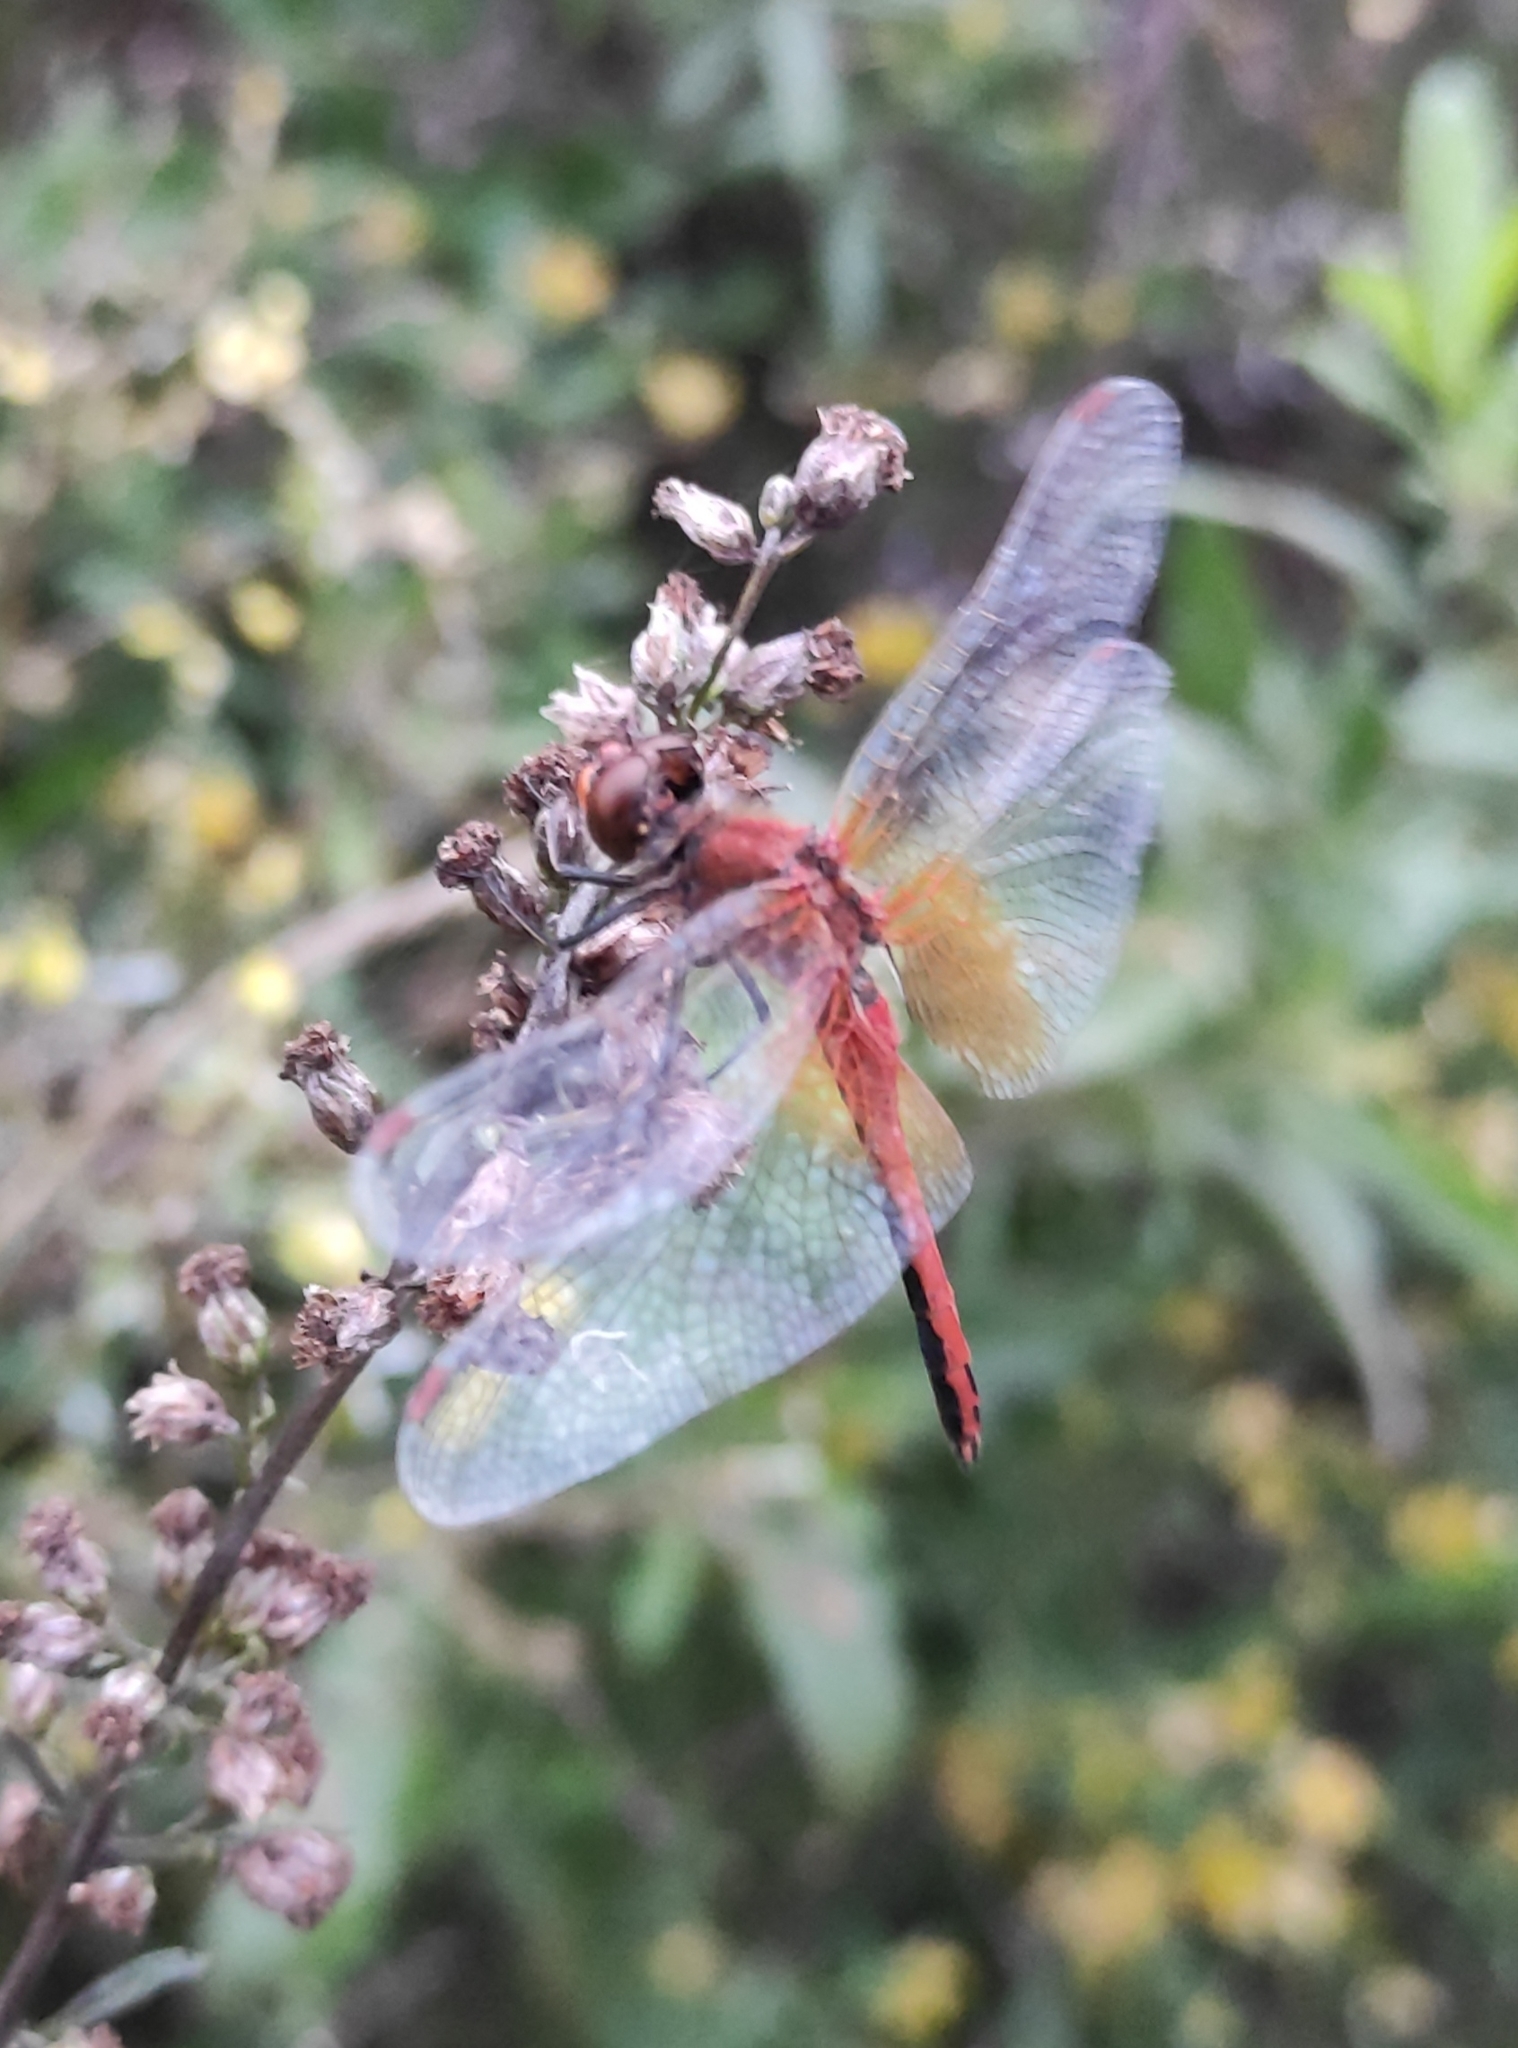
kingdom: Animalia
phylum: Arthropoda
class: Insecta
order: Odonata
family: Libellulidae
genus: Sympetrum
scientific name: Sympetrum flaveolum
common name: Yellow-winged darter
